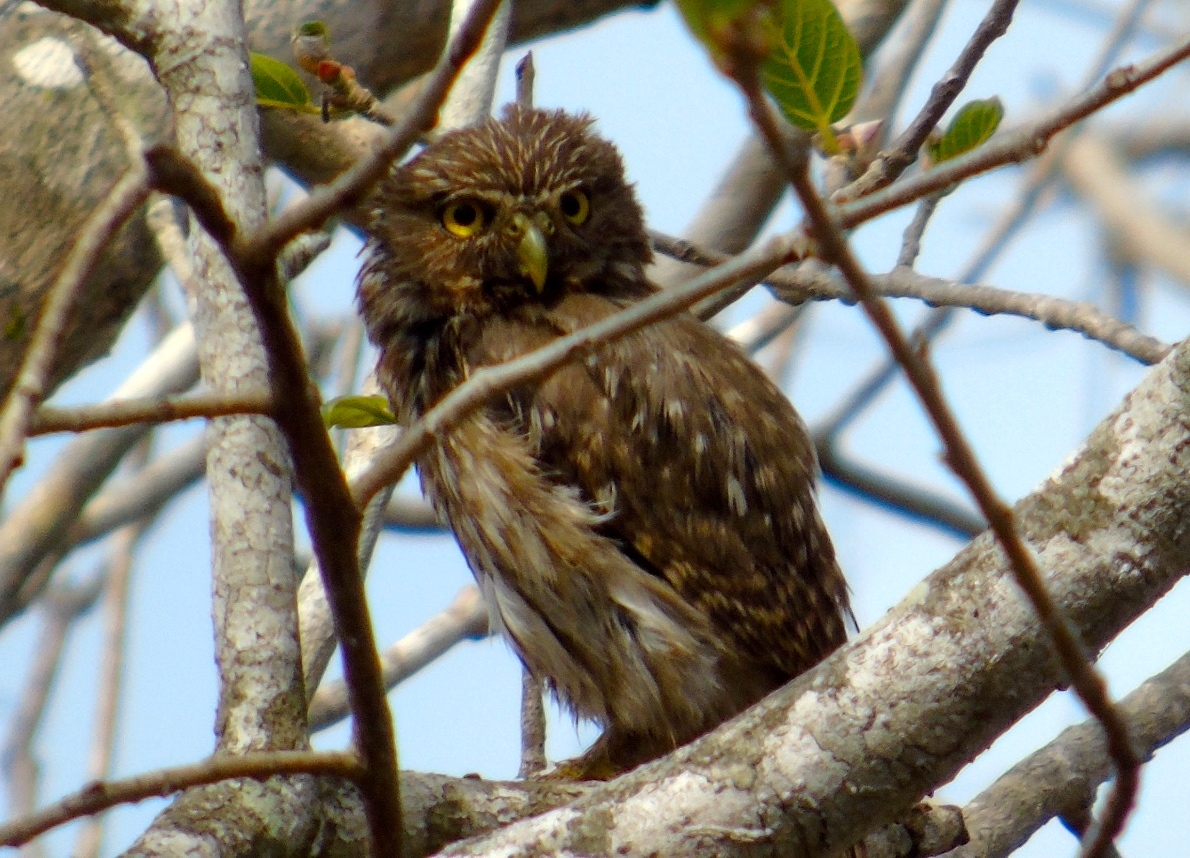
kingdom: Animalia
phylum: Chordata
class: Aves
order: Strigiformes
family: Strigidae
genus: Glaucidium
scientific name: Glaucidium brasilianum
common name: Ferruginous pygmy-owl
